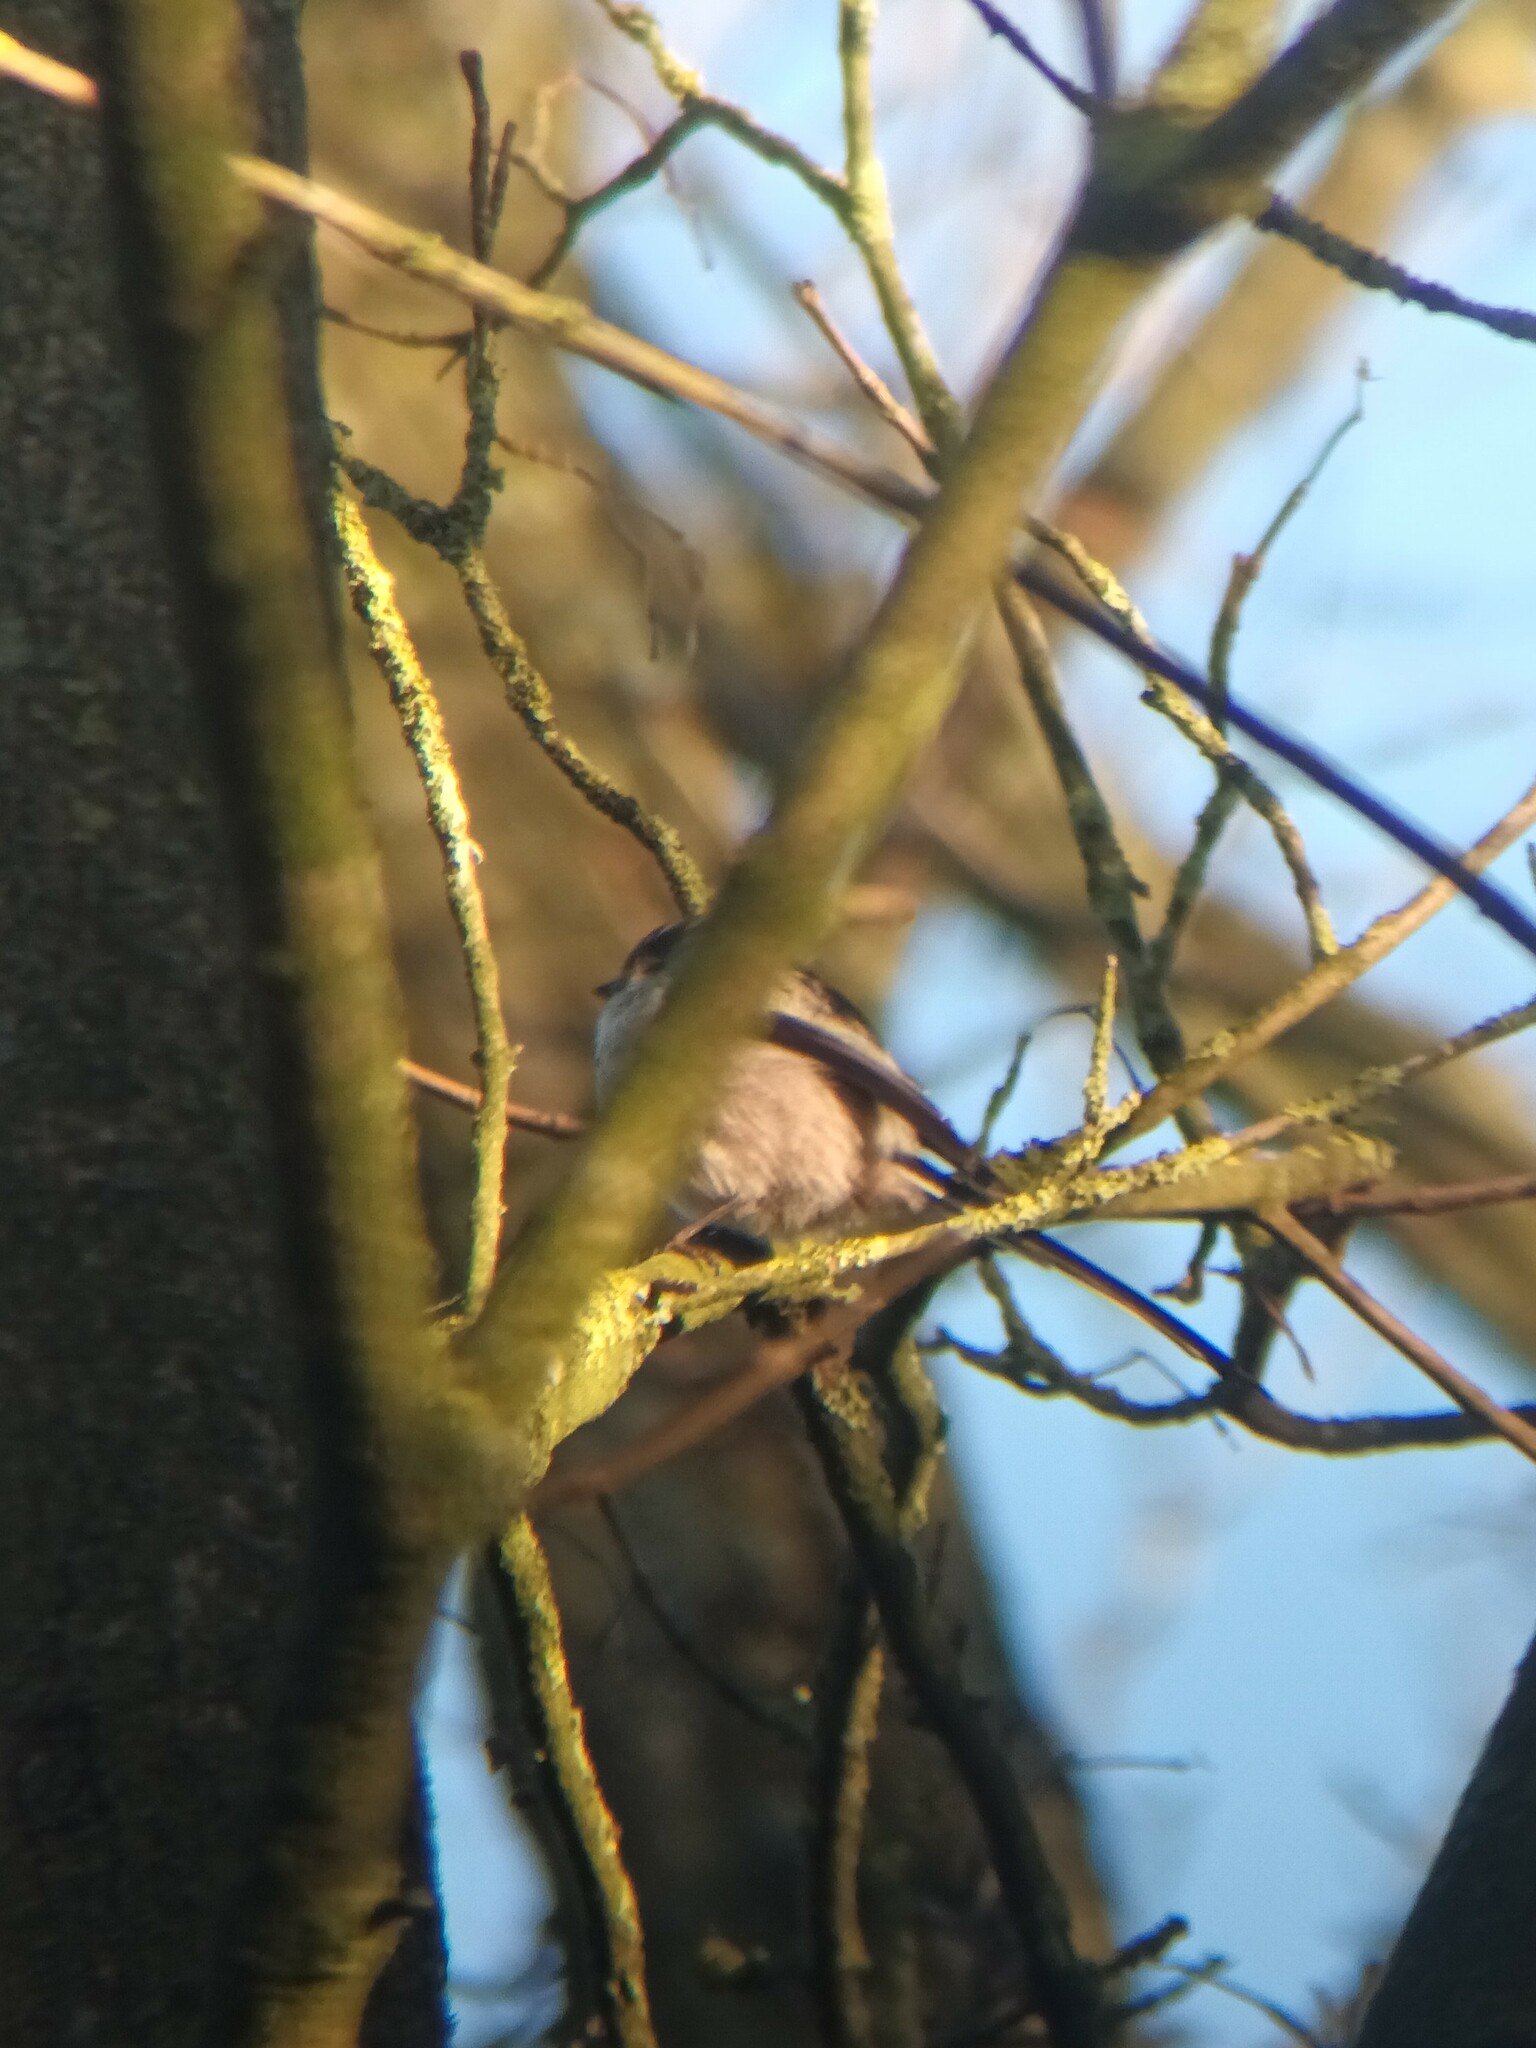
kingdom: Animalia
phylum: Chordata
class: Aves
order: Passeriformes
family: Aegithalidae
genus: Aegithalos
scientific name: Aegithalos caudatus
